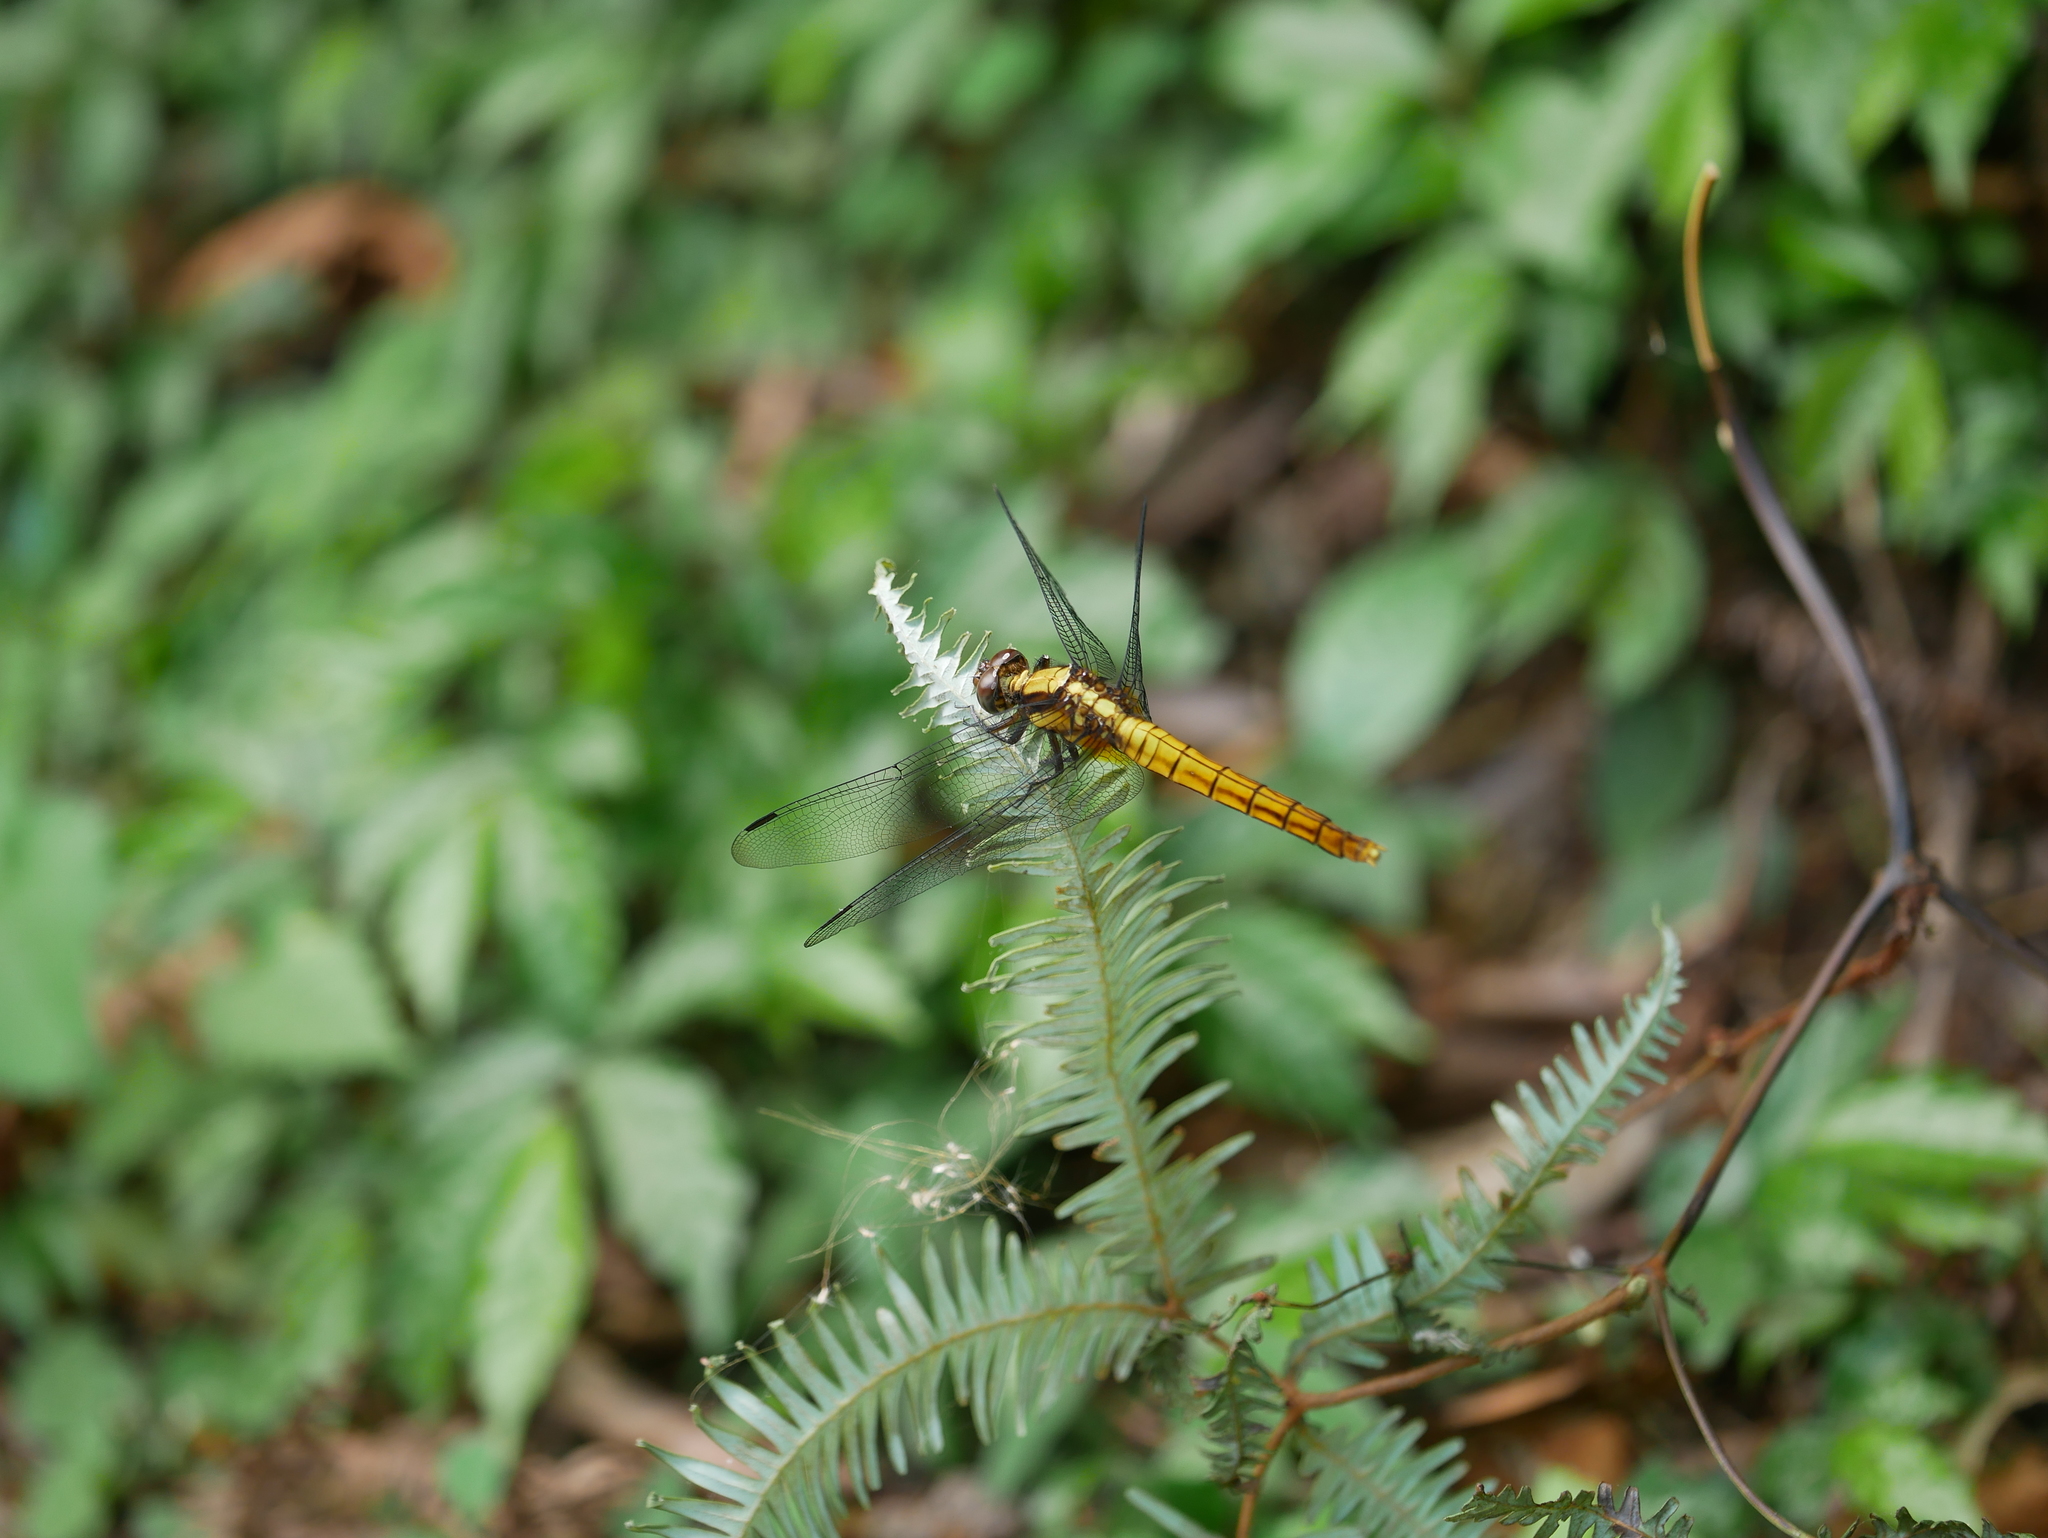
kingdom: Animalia
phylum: Arthropoda
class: Insecta
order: Odonata
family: Libellulidae
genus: Orthetrum
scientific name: Orthetrum triangulare
